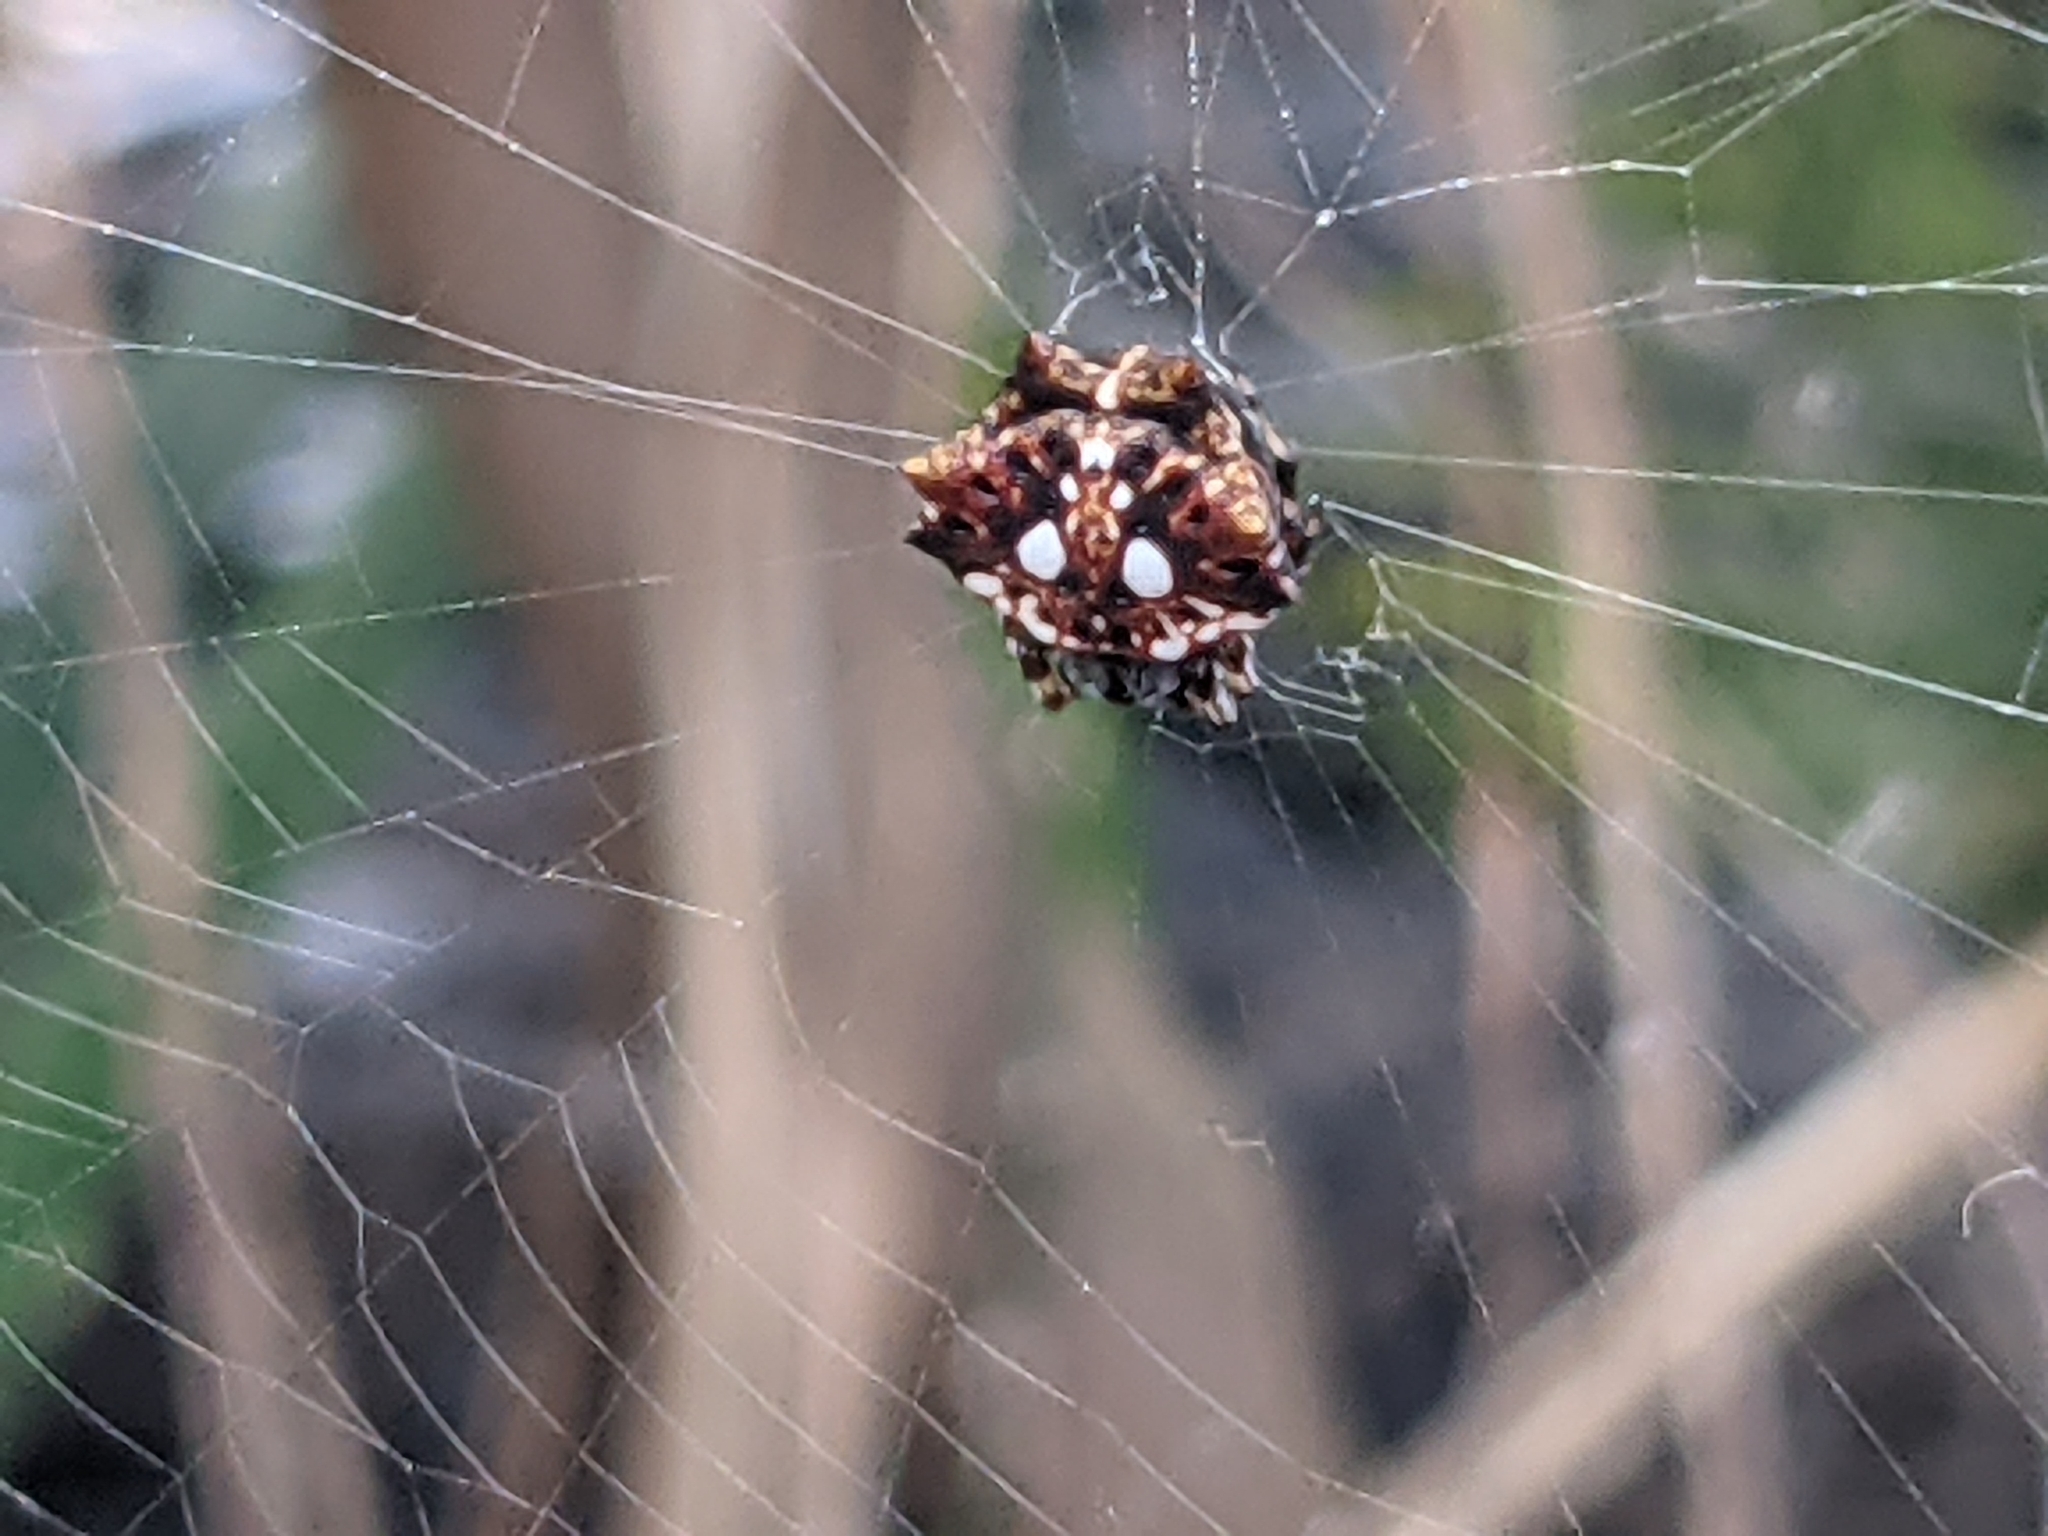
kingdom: Animalia
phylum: Arthropoda
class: Arachnida
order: Araneae
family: Araneidae
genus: Thelacantha
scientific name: Thelacantha brevispina
